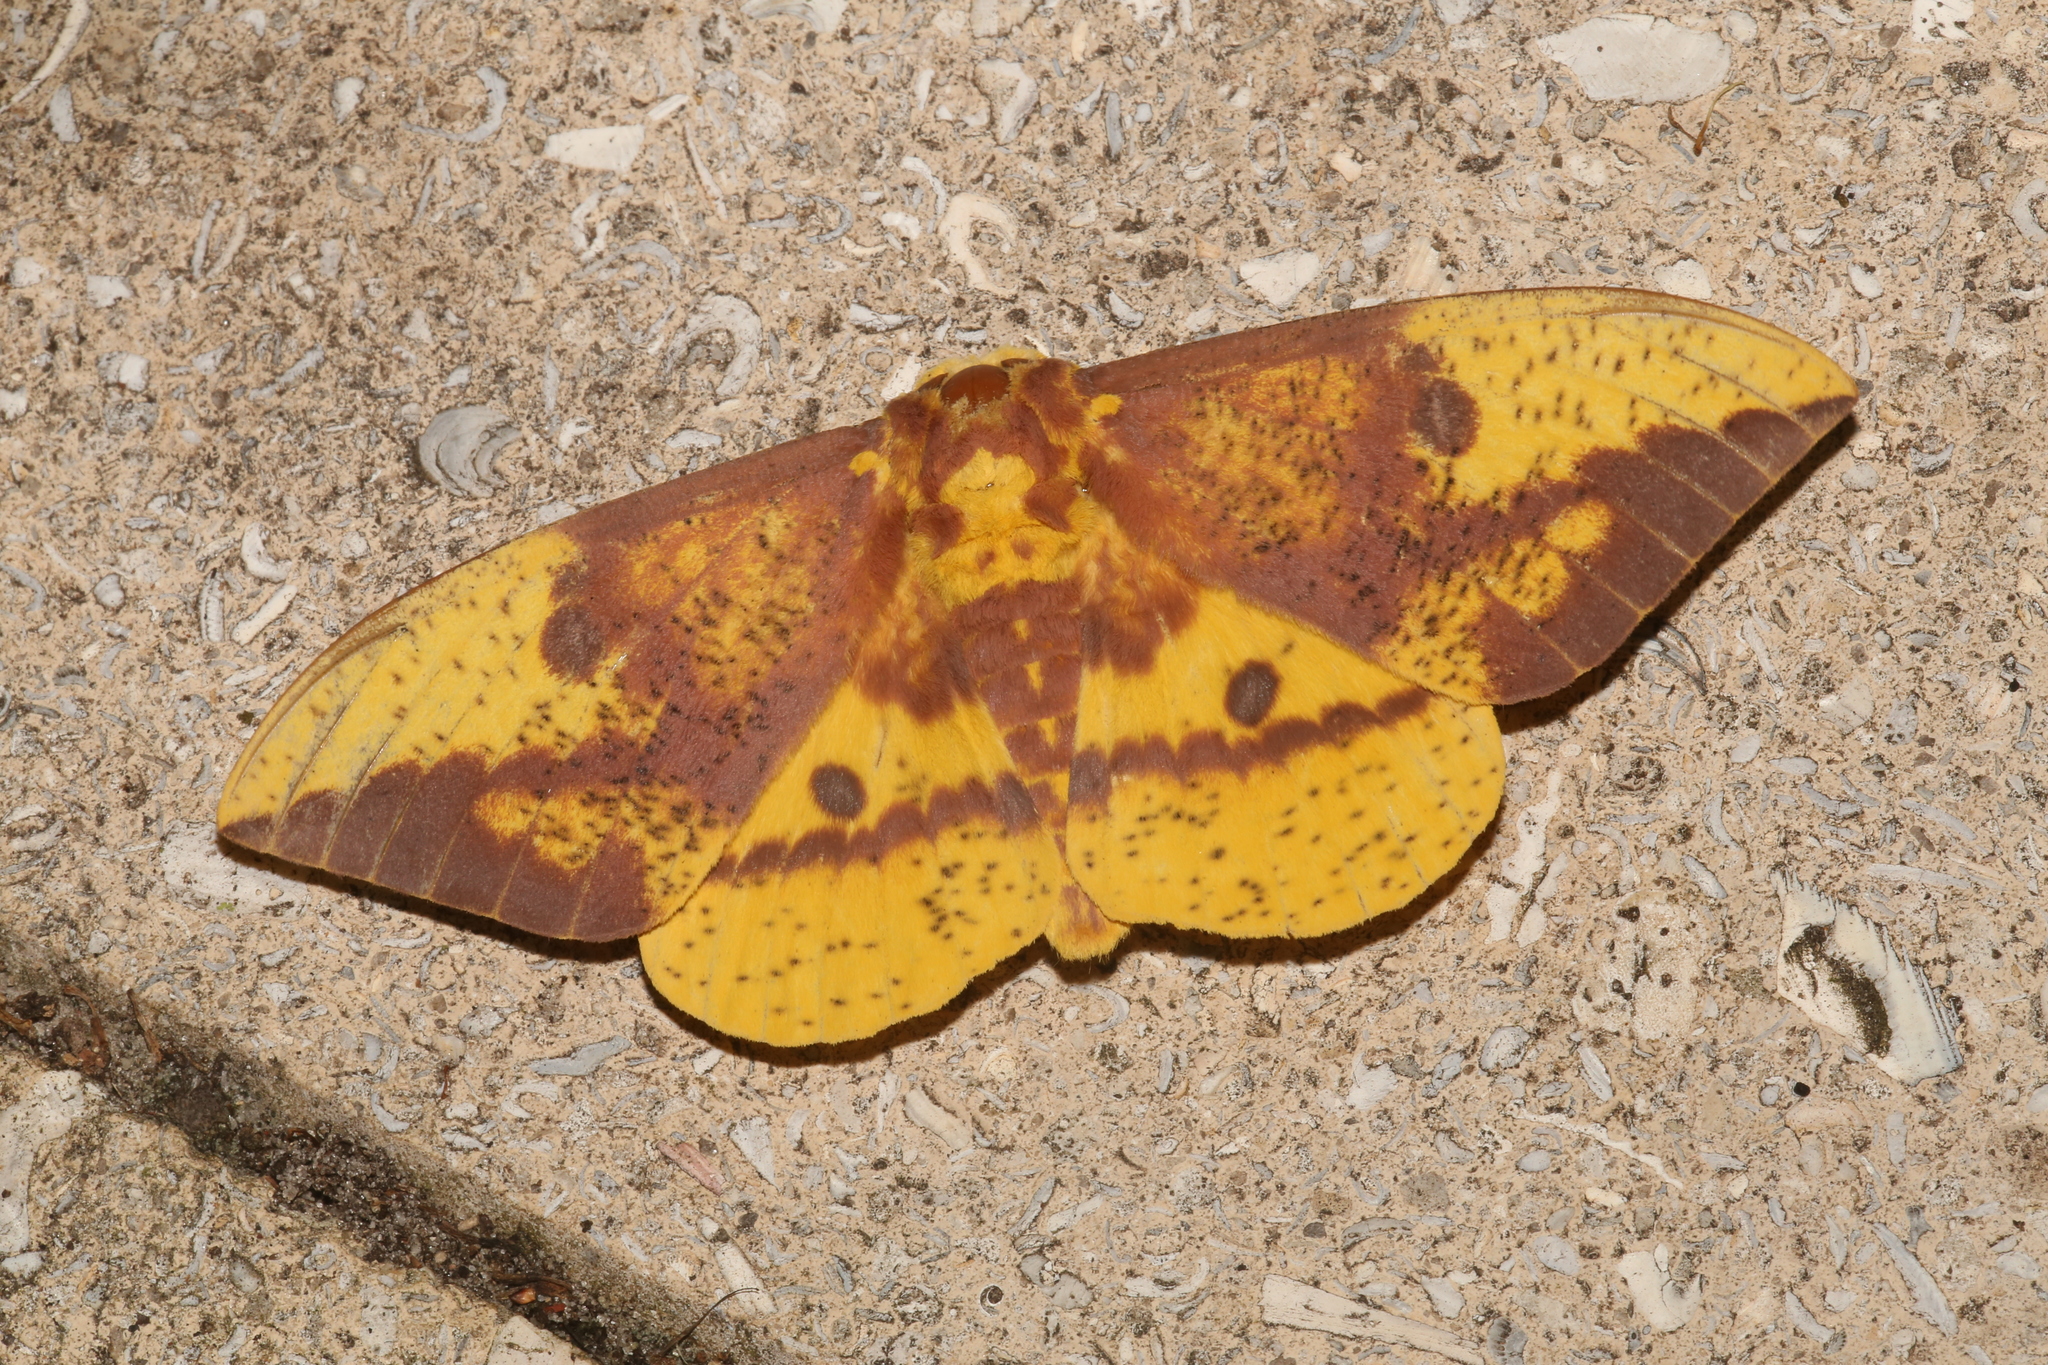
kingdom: Animalia
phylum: Arthropoda
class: Insecta
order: Lepidoptera
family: Saturniidae
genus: Eacles
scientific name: Eacles imperialis
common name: Imperial moth
